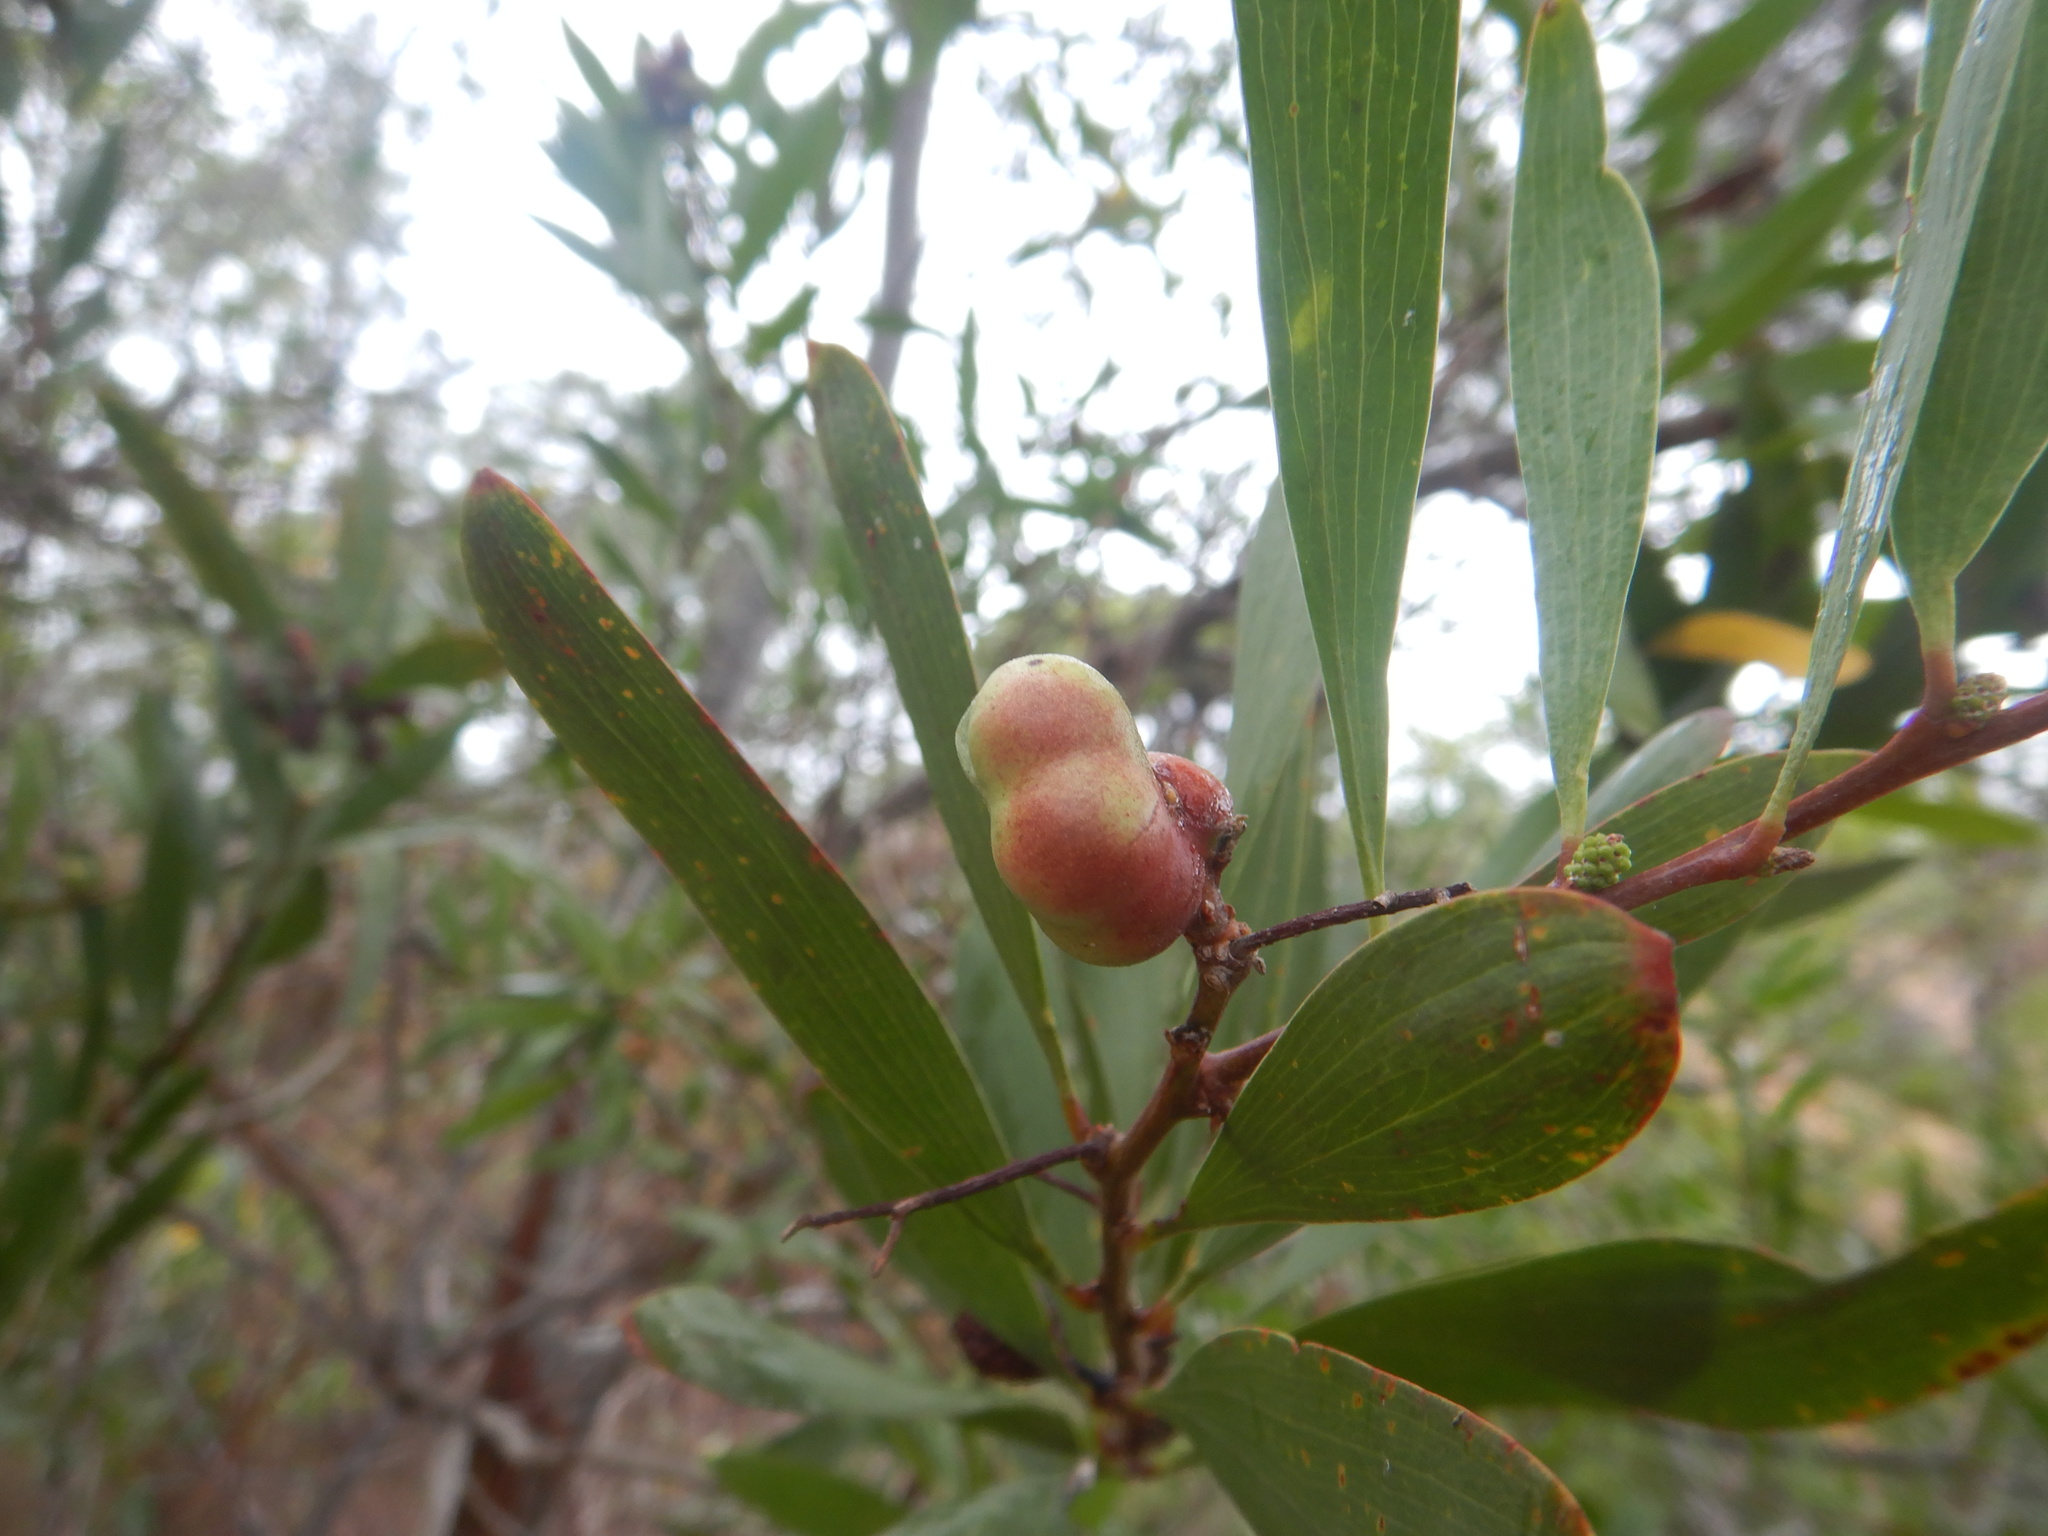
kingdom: Plantae
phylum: Tracheophyta
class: Magnoliopsida
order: Fabales
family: Fabaceae
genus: Acacia
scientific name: Acacia longifolia
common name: Sydney golden wattle
